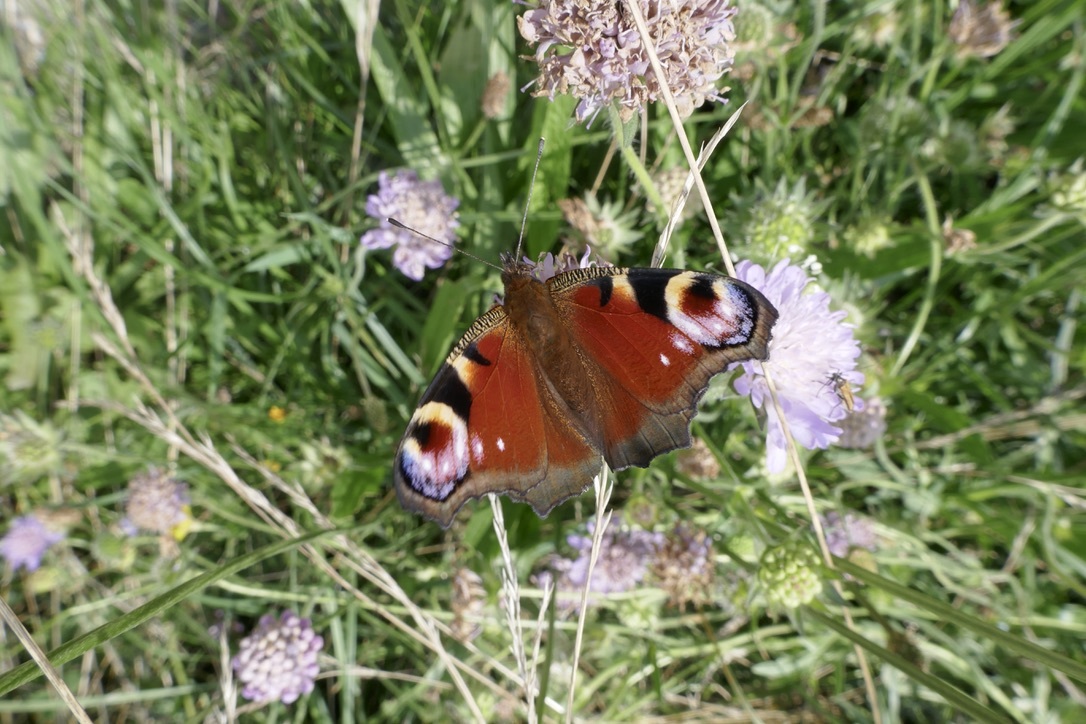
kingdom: Animalia
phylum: Arthropoda
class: Insecta
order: Lepidoptera
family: Nymphalidae
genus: Aglais
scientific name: Aglais io
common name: Peacock
